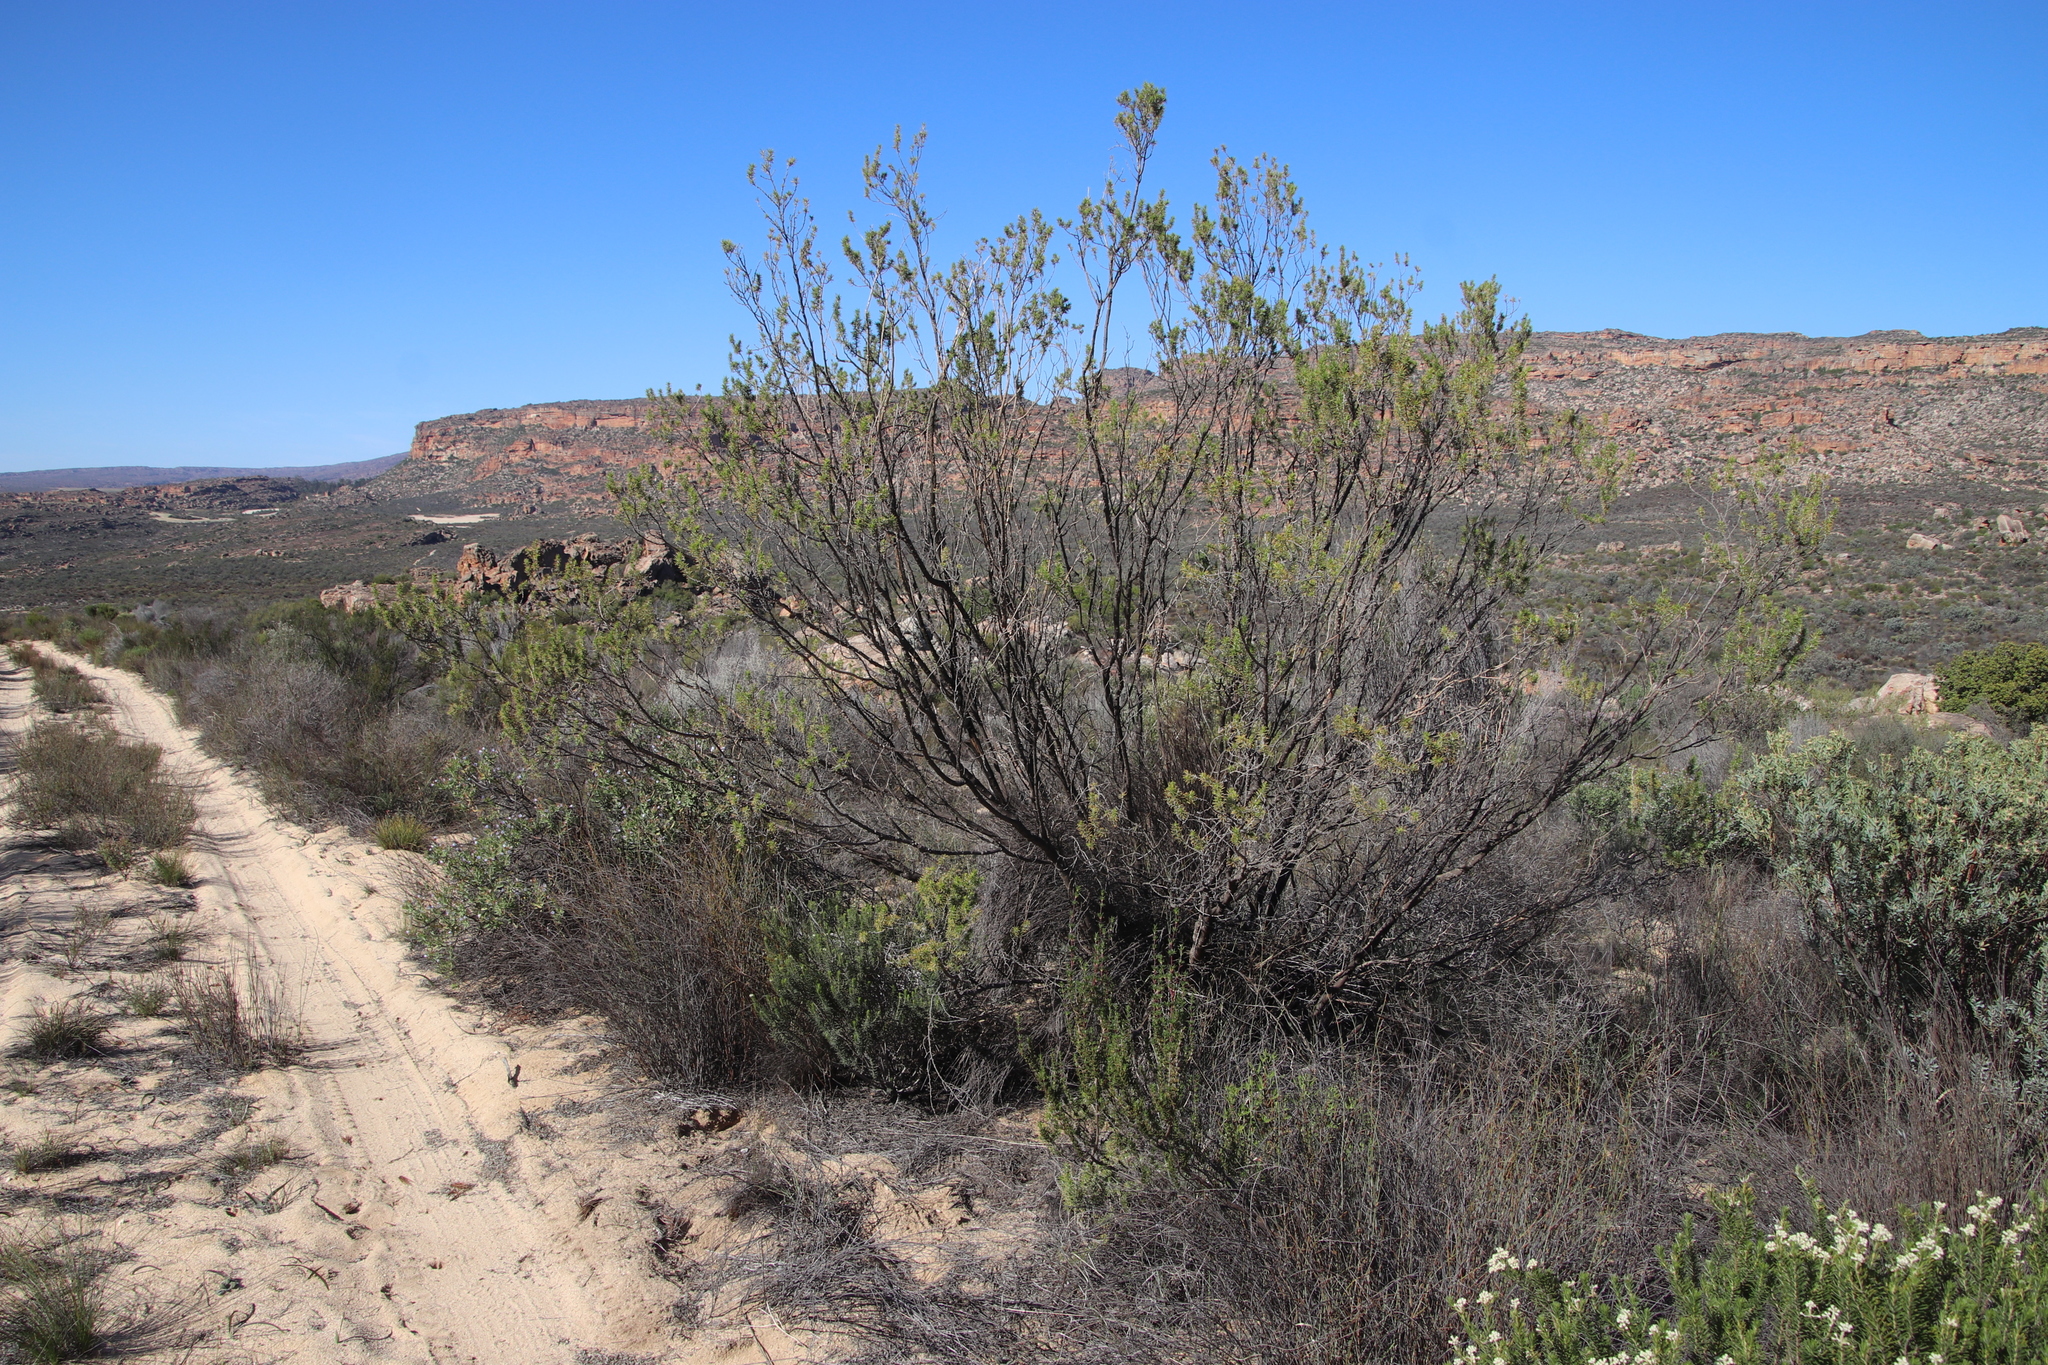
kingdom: Plantae
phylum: Tracheophyta
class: Magnoliopsida
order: Fabales
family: Fabaceae
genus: Aspalathus
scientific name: Aspalathus hirta
